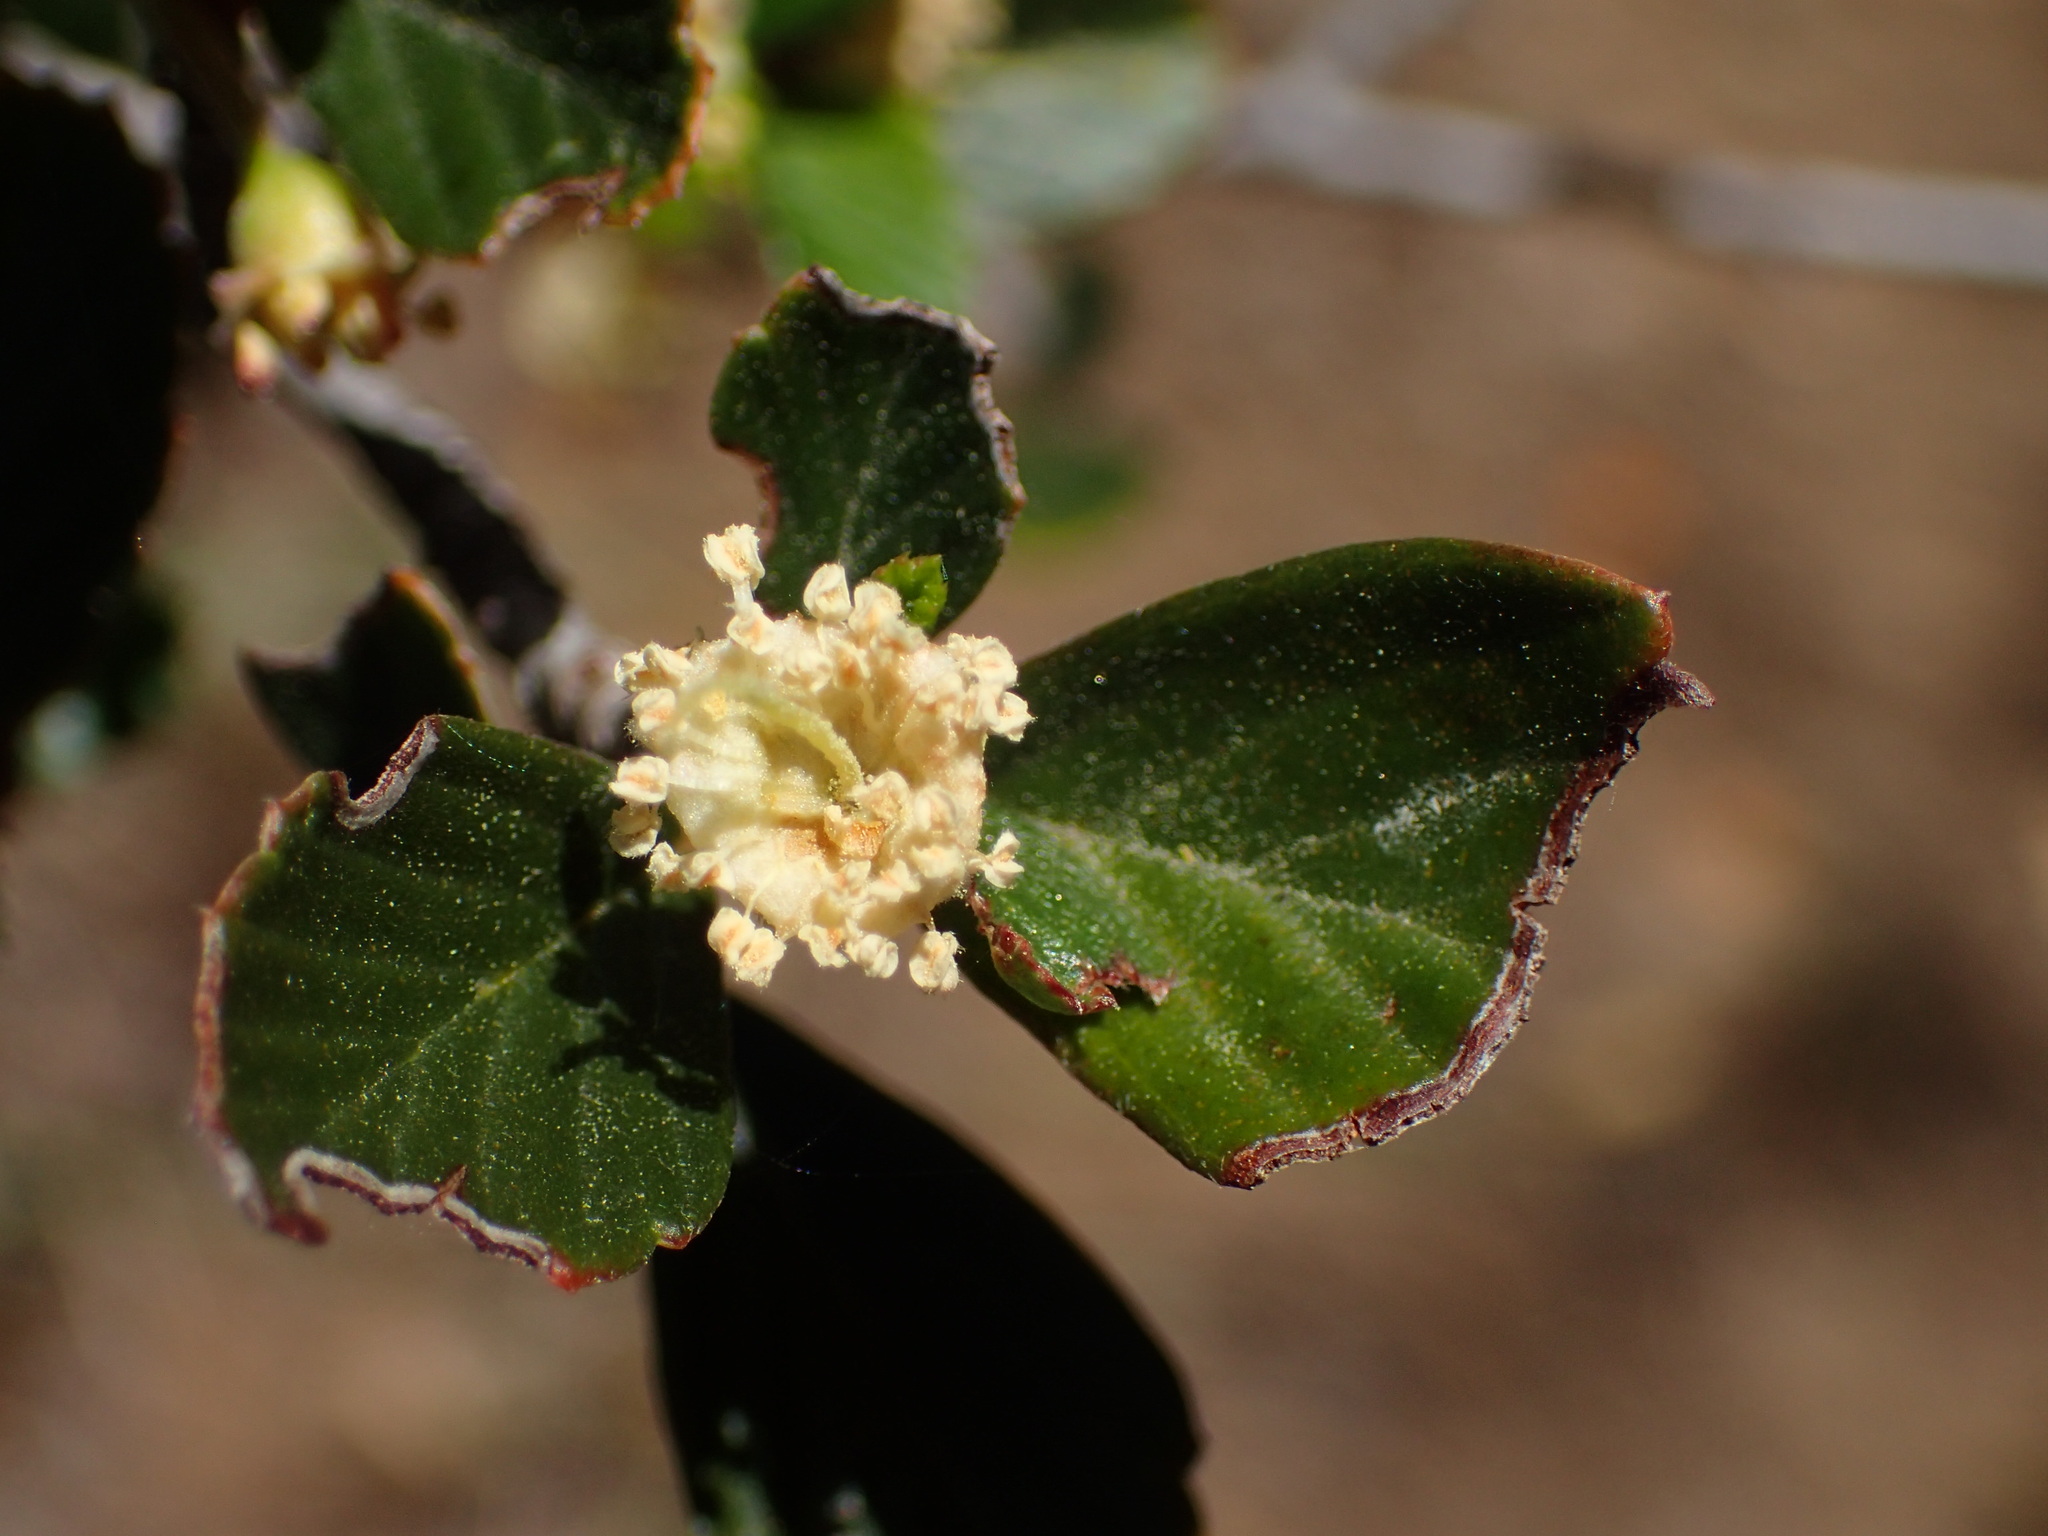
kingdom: Plantae
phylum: Tracheophyta
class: Magnoliopsida
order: Rosales
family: Rosaceae
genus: Cercocarpus
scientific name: Cercocarpus betuloides
